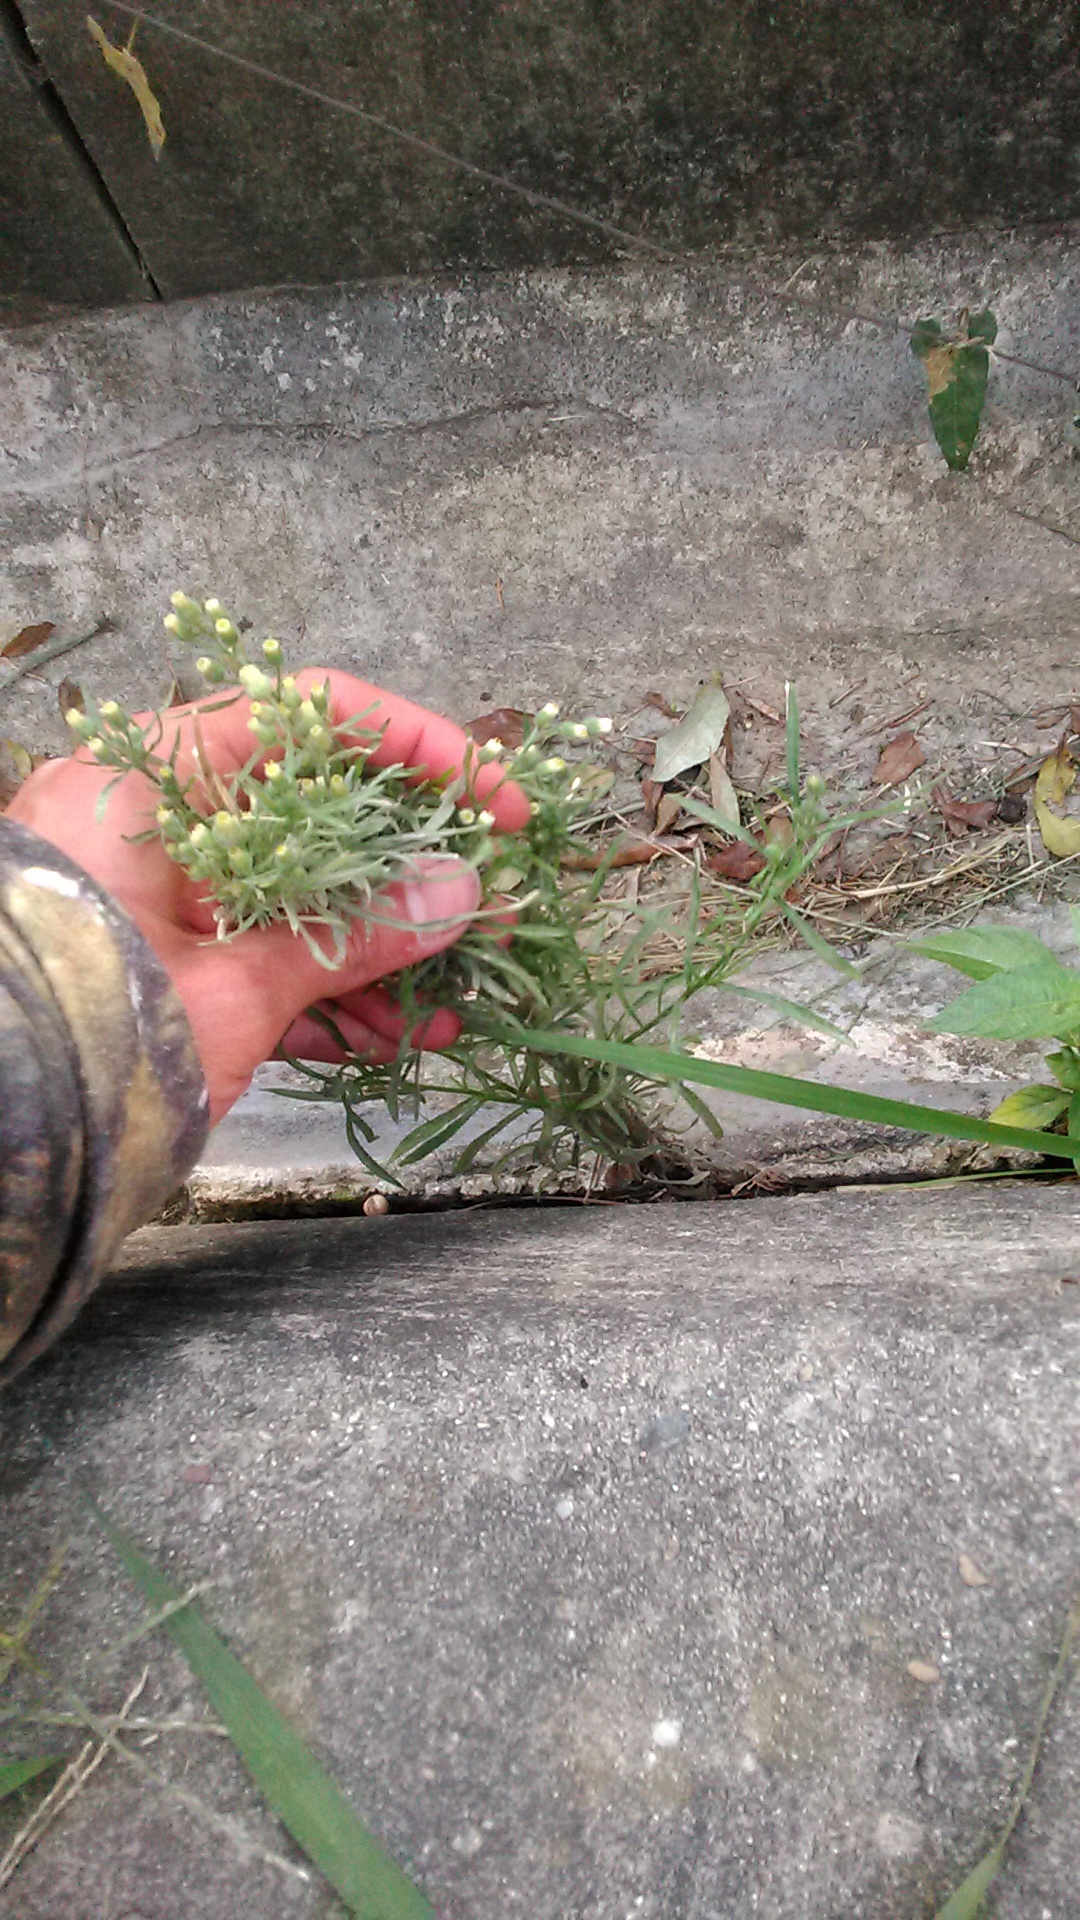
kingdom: Plantae
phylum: Tracheophyta
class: Magnoliopsida
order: Asterales
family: Asteraceae
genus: Erigeron
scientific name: Erigeron bonariensis
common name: Argentine fleabane
